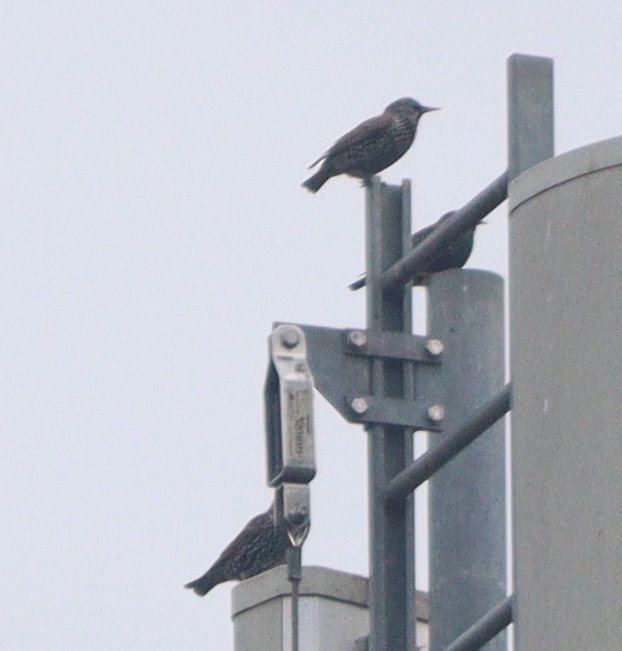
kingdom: Animalia
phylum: Chordata
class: Aves
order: Passeriformes
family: Sturnidae
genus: Sturnus
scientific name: Sturnus vulgaris
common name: Common starling
